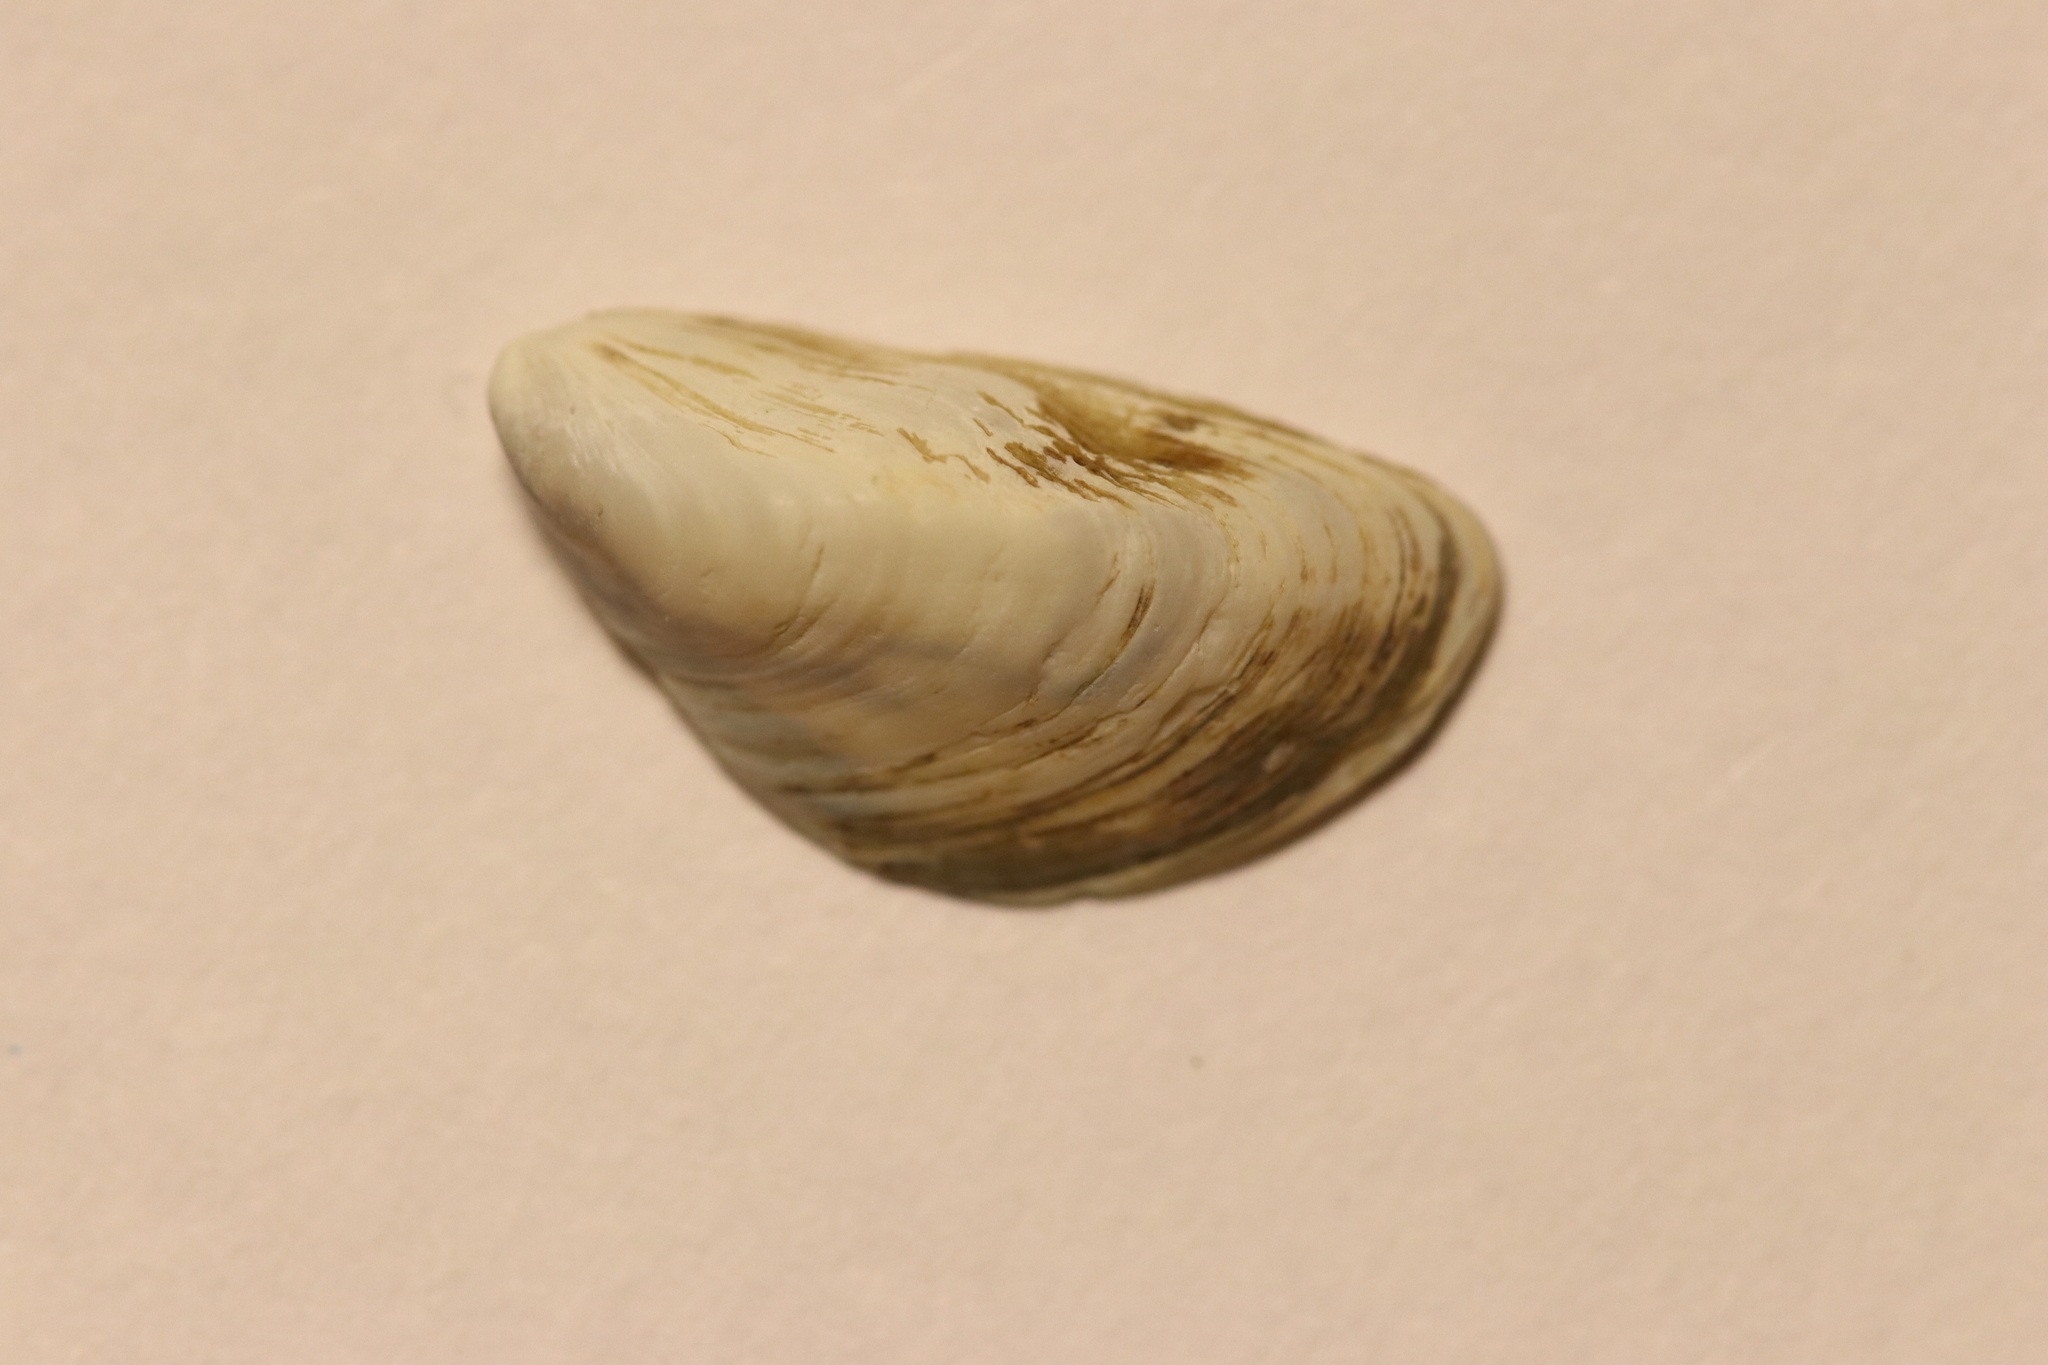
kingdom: Animalia
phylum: Mollusca
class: Bivalvia
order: Myida
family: Dreissenidae
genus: Dreissena
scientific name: Dreissena bugensis
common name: Quagga mussel
